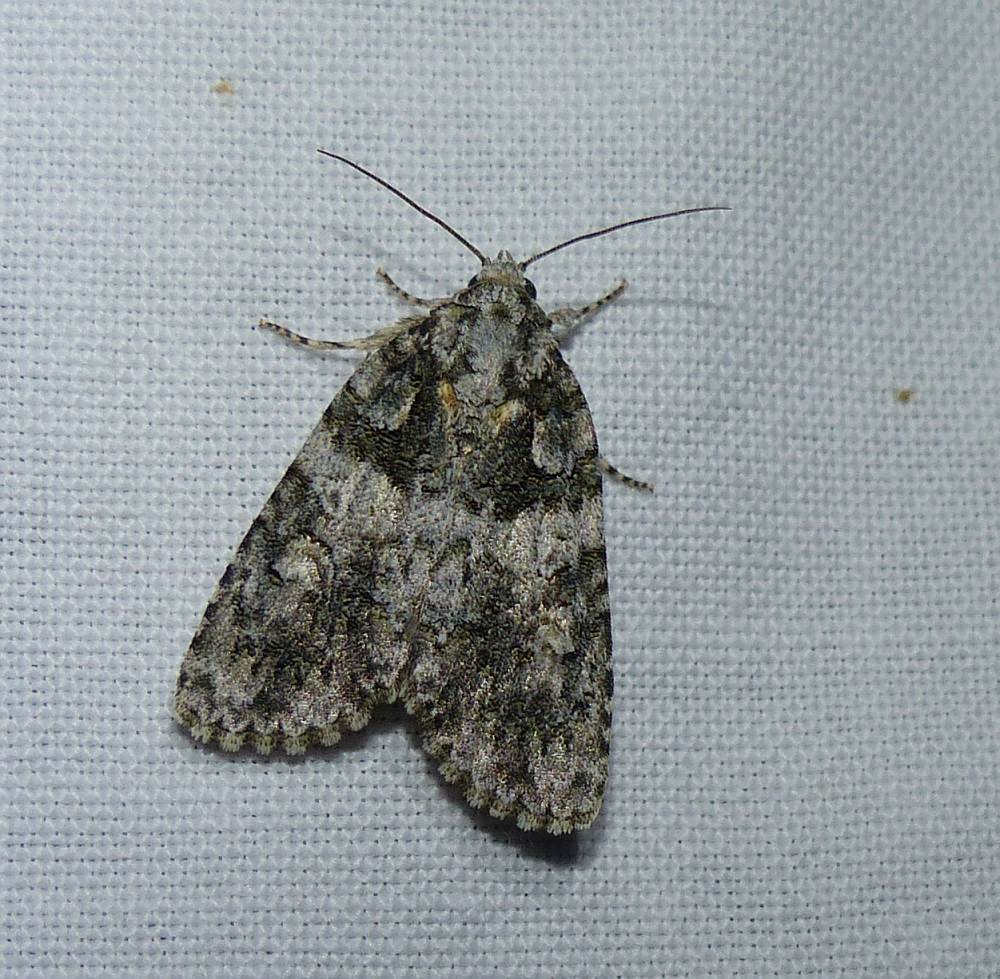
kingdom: Animalia
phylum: Arthropoda
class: Insecta
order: Lepidoptera
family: Noctuidae
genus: Acronicta
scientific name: Acronicta increta
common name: Eclipsed oak dagger
